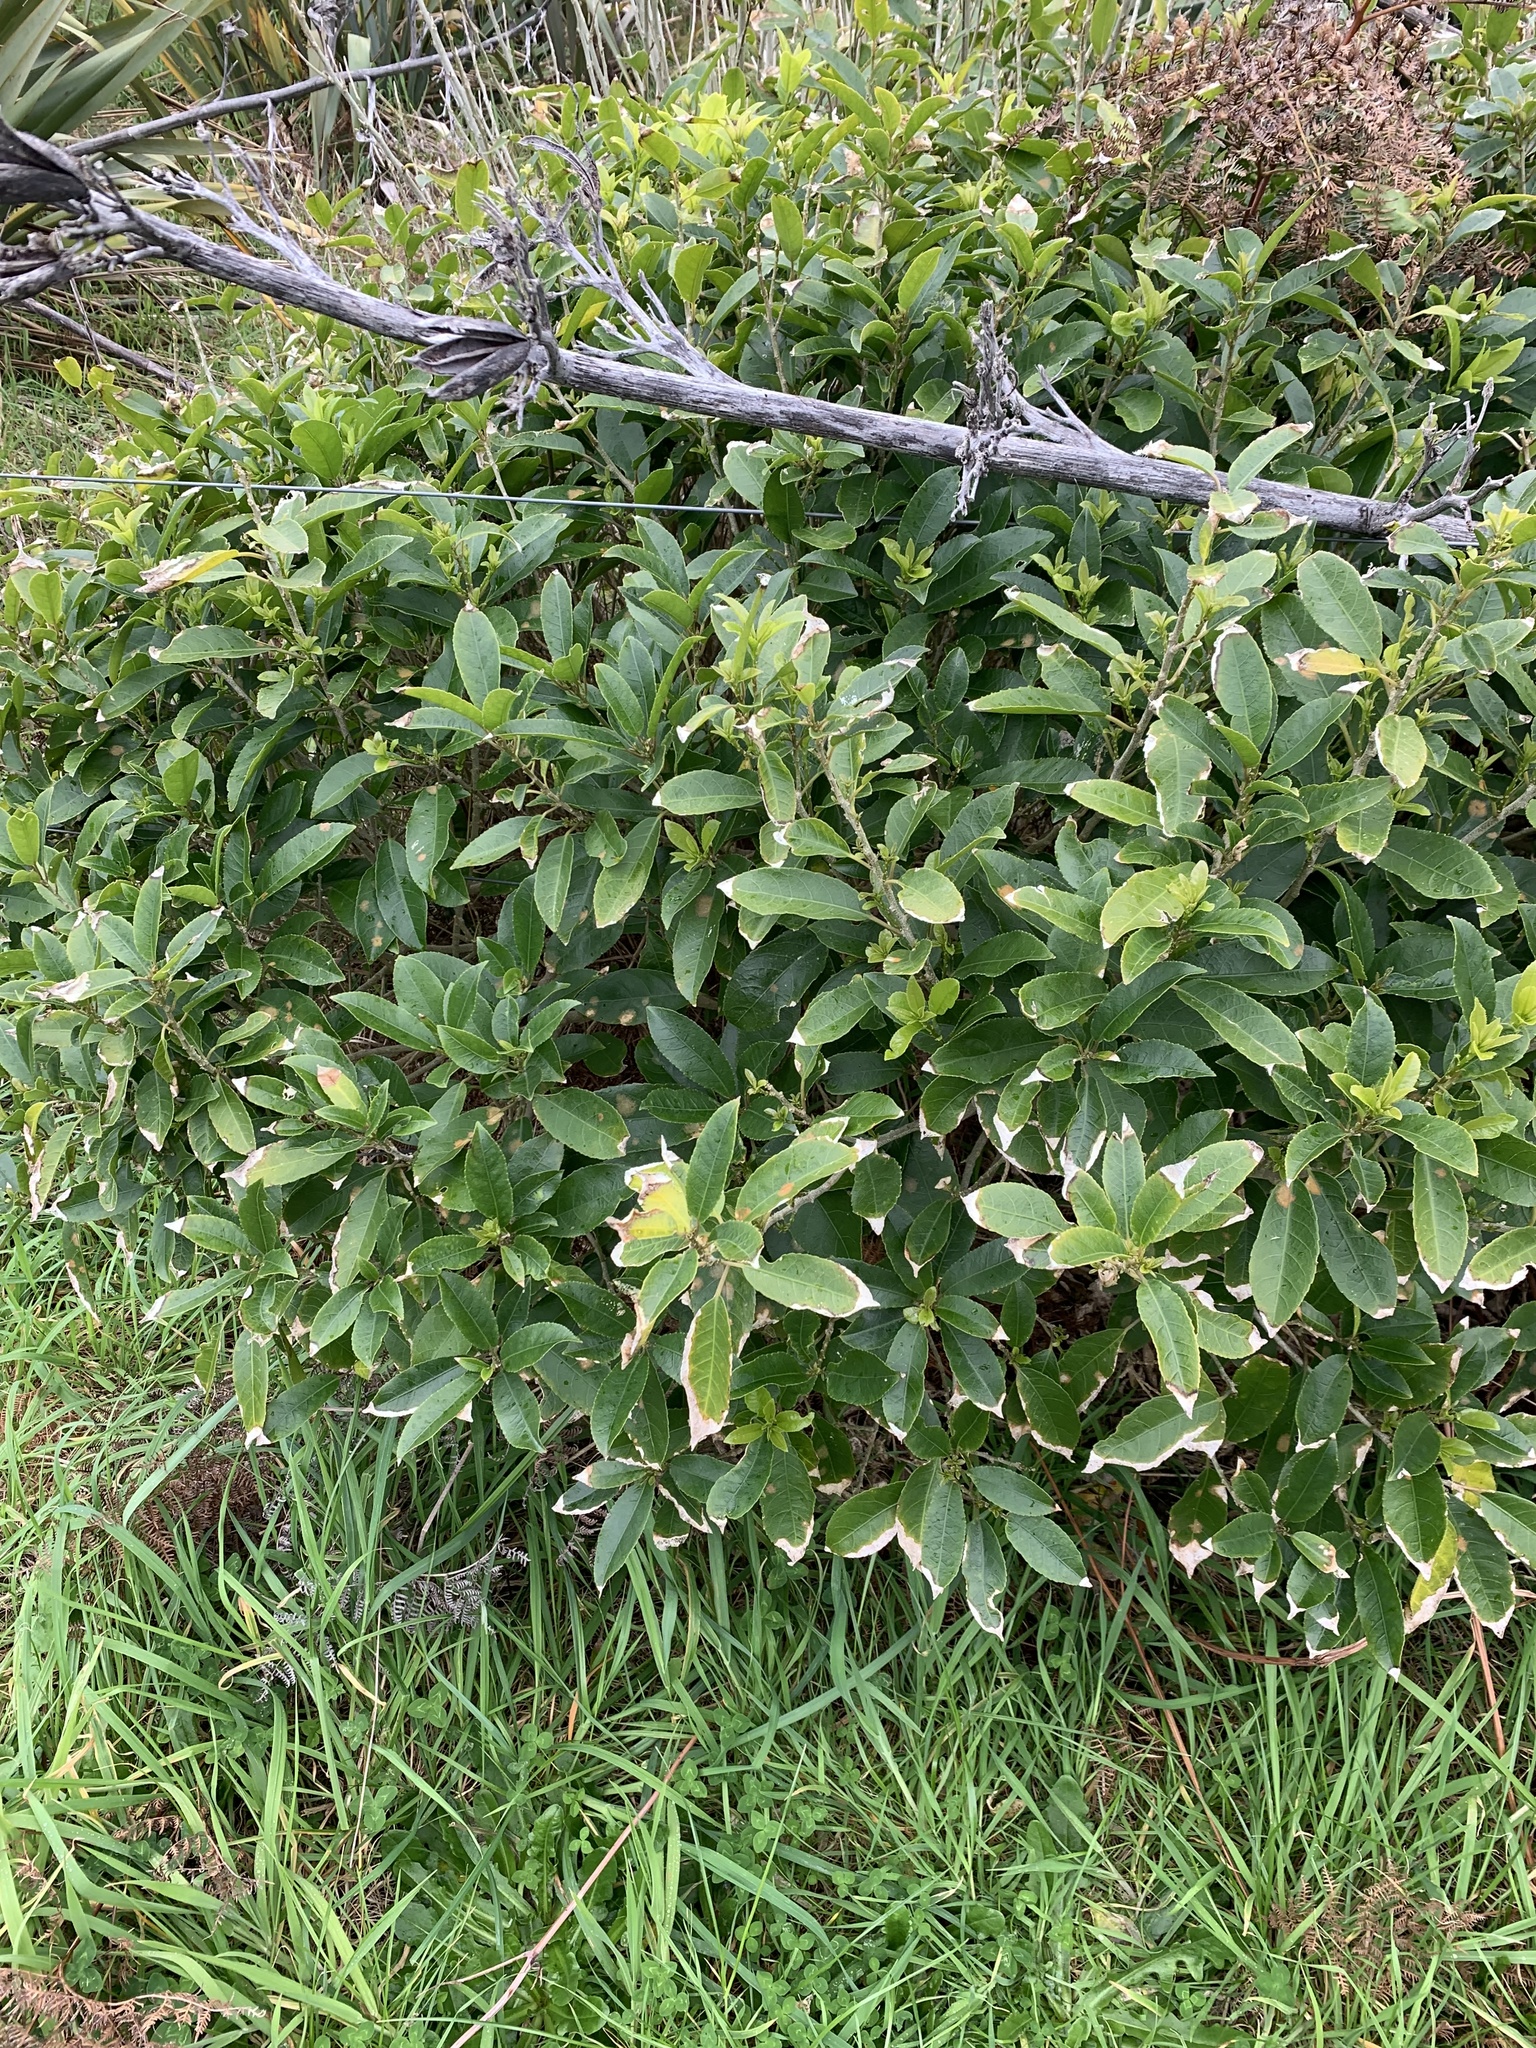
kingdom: Plantae
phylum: Tracheophyta
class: Magnoliopsida
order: Malpighiales
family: Violaceae
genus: Melicytus
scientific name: Melicytus ramiflorus
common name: Mahoe
